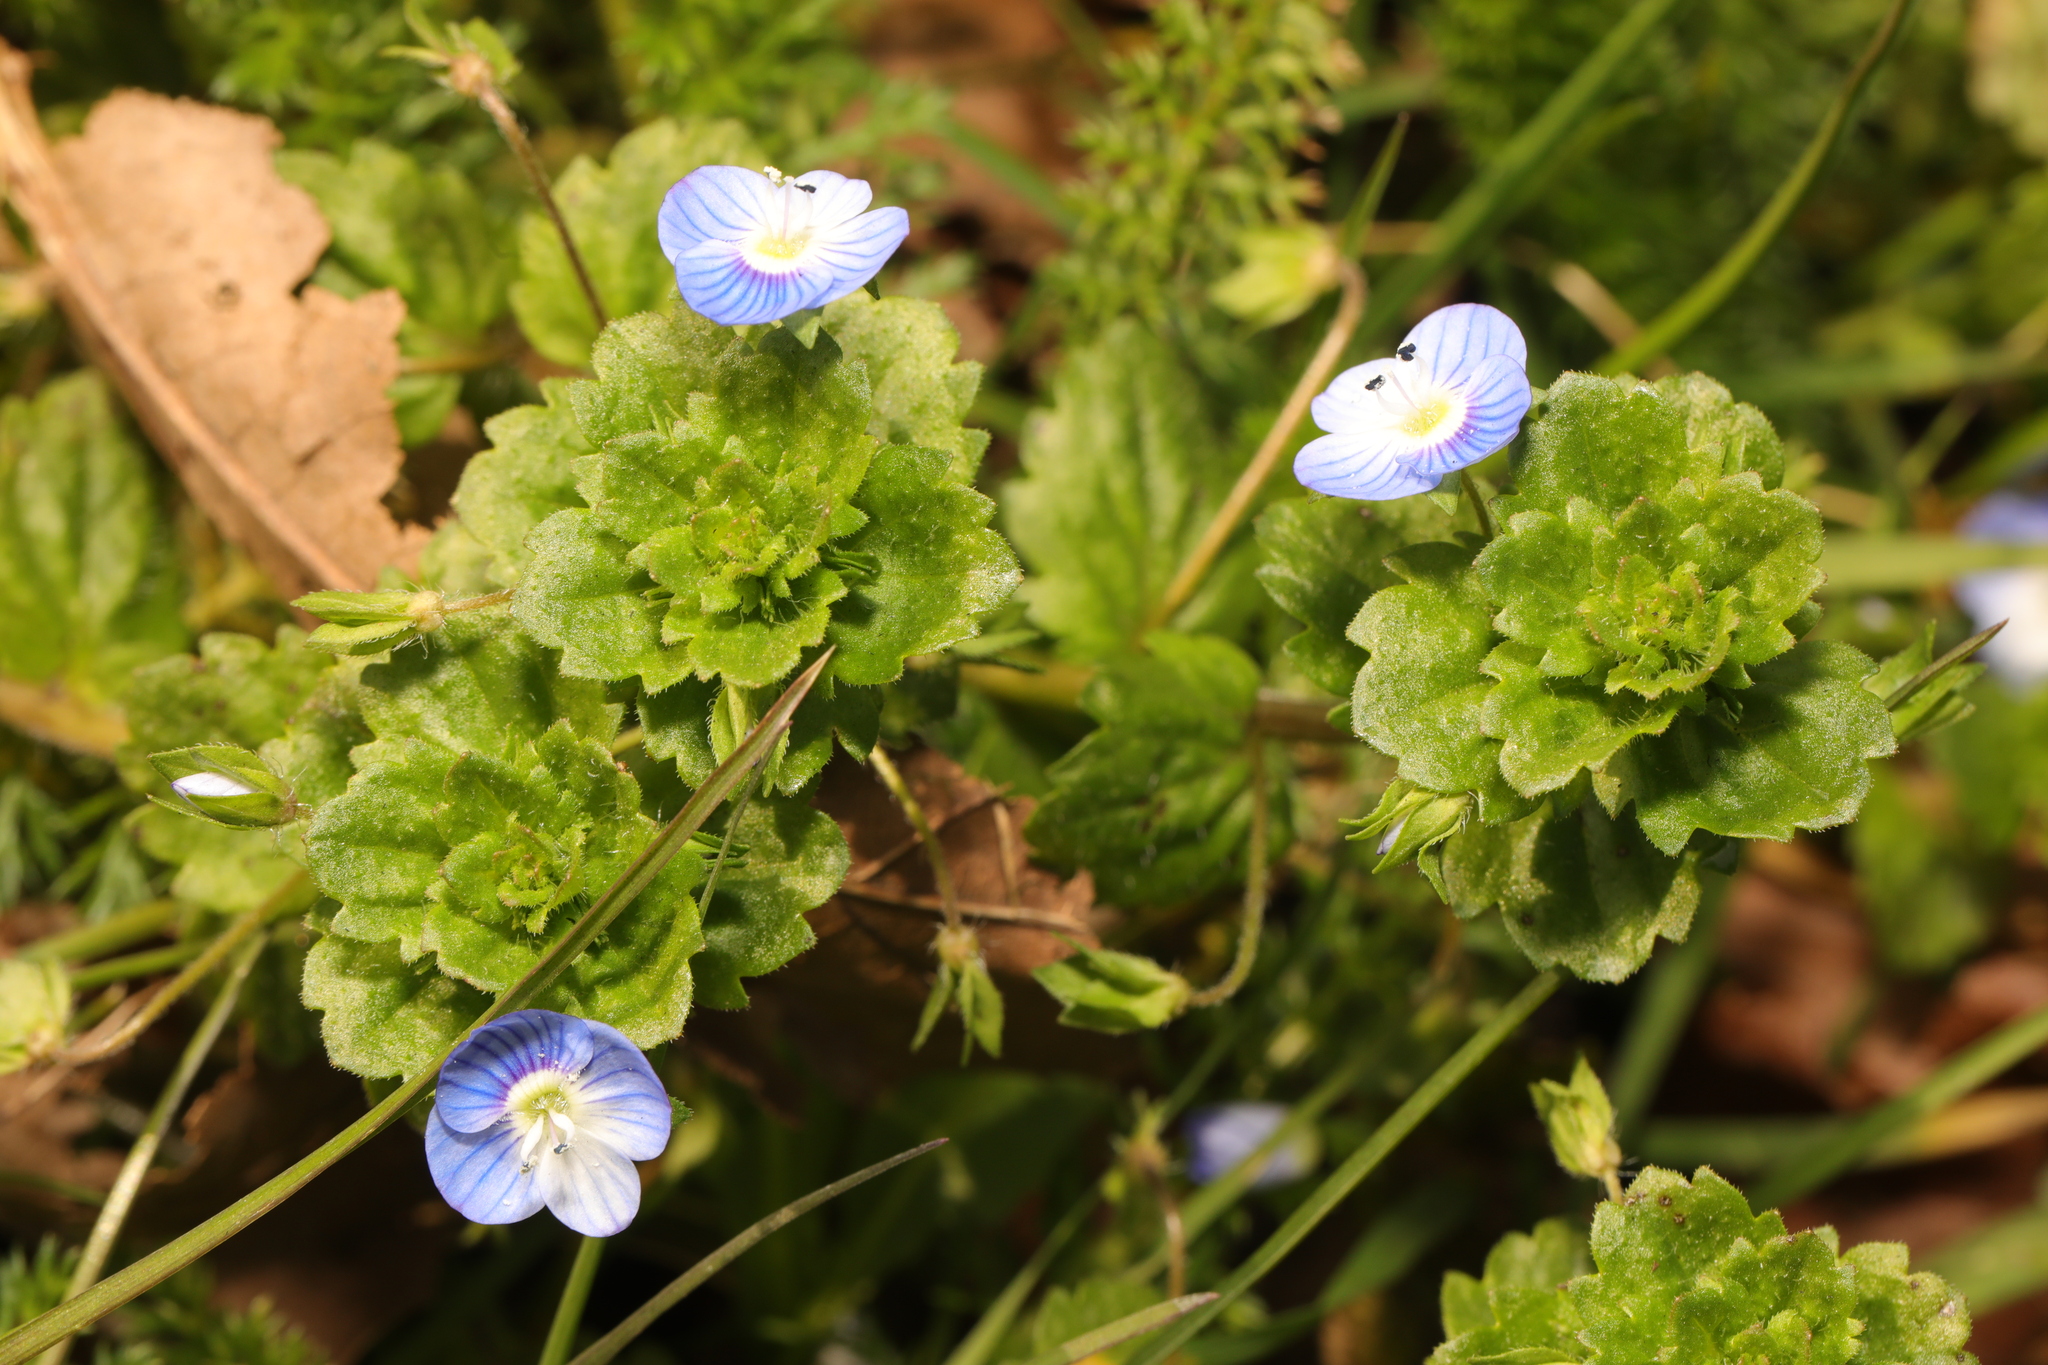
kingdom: Plantae
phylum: Tracheophyta
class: Magnoliopsida
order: Lamiales
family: Plantaginaceae
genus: Veronica
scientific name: Veronica persica
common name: Common field-speedwell
